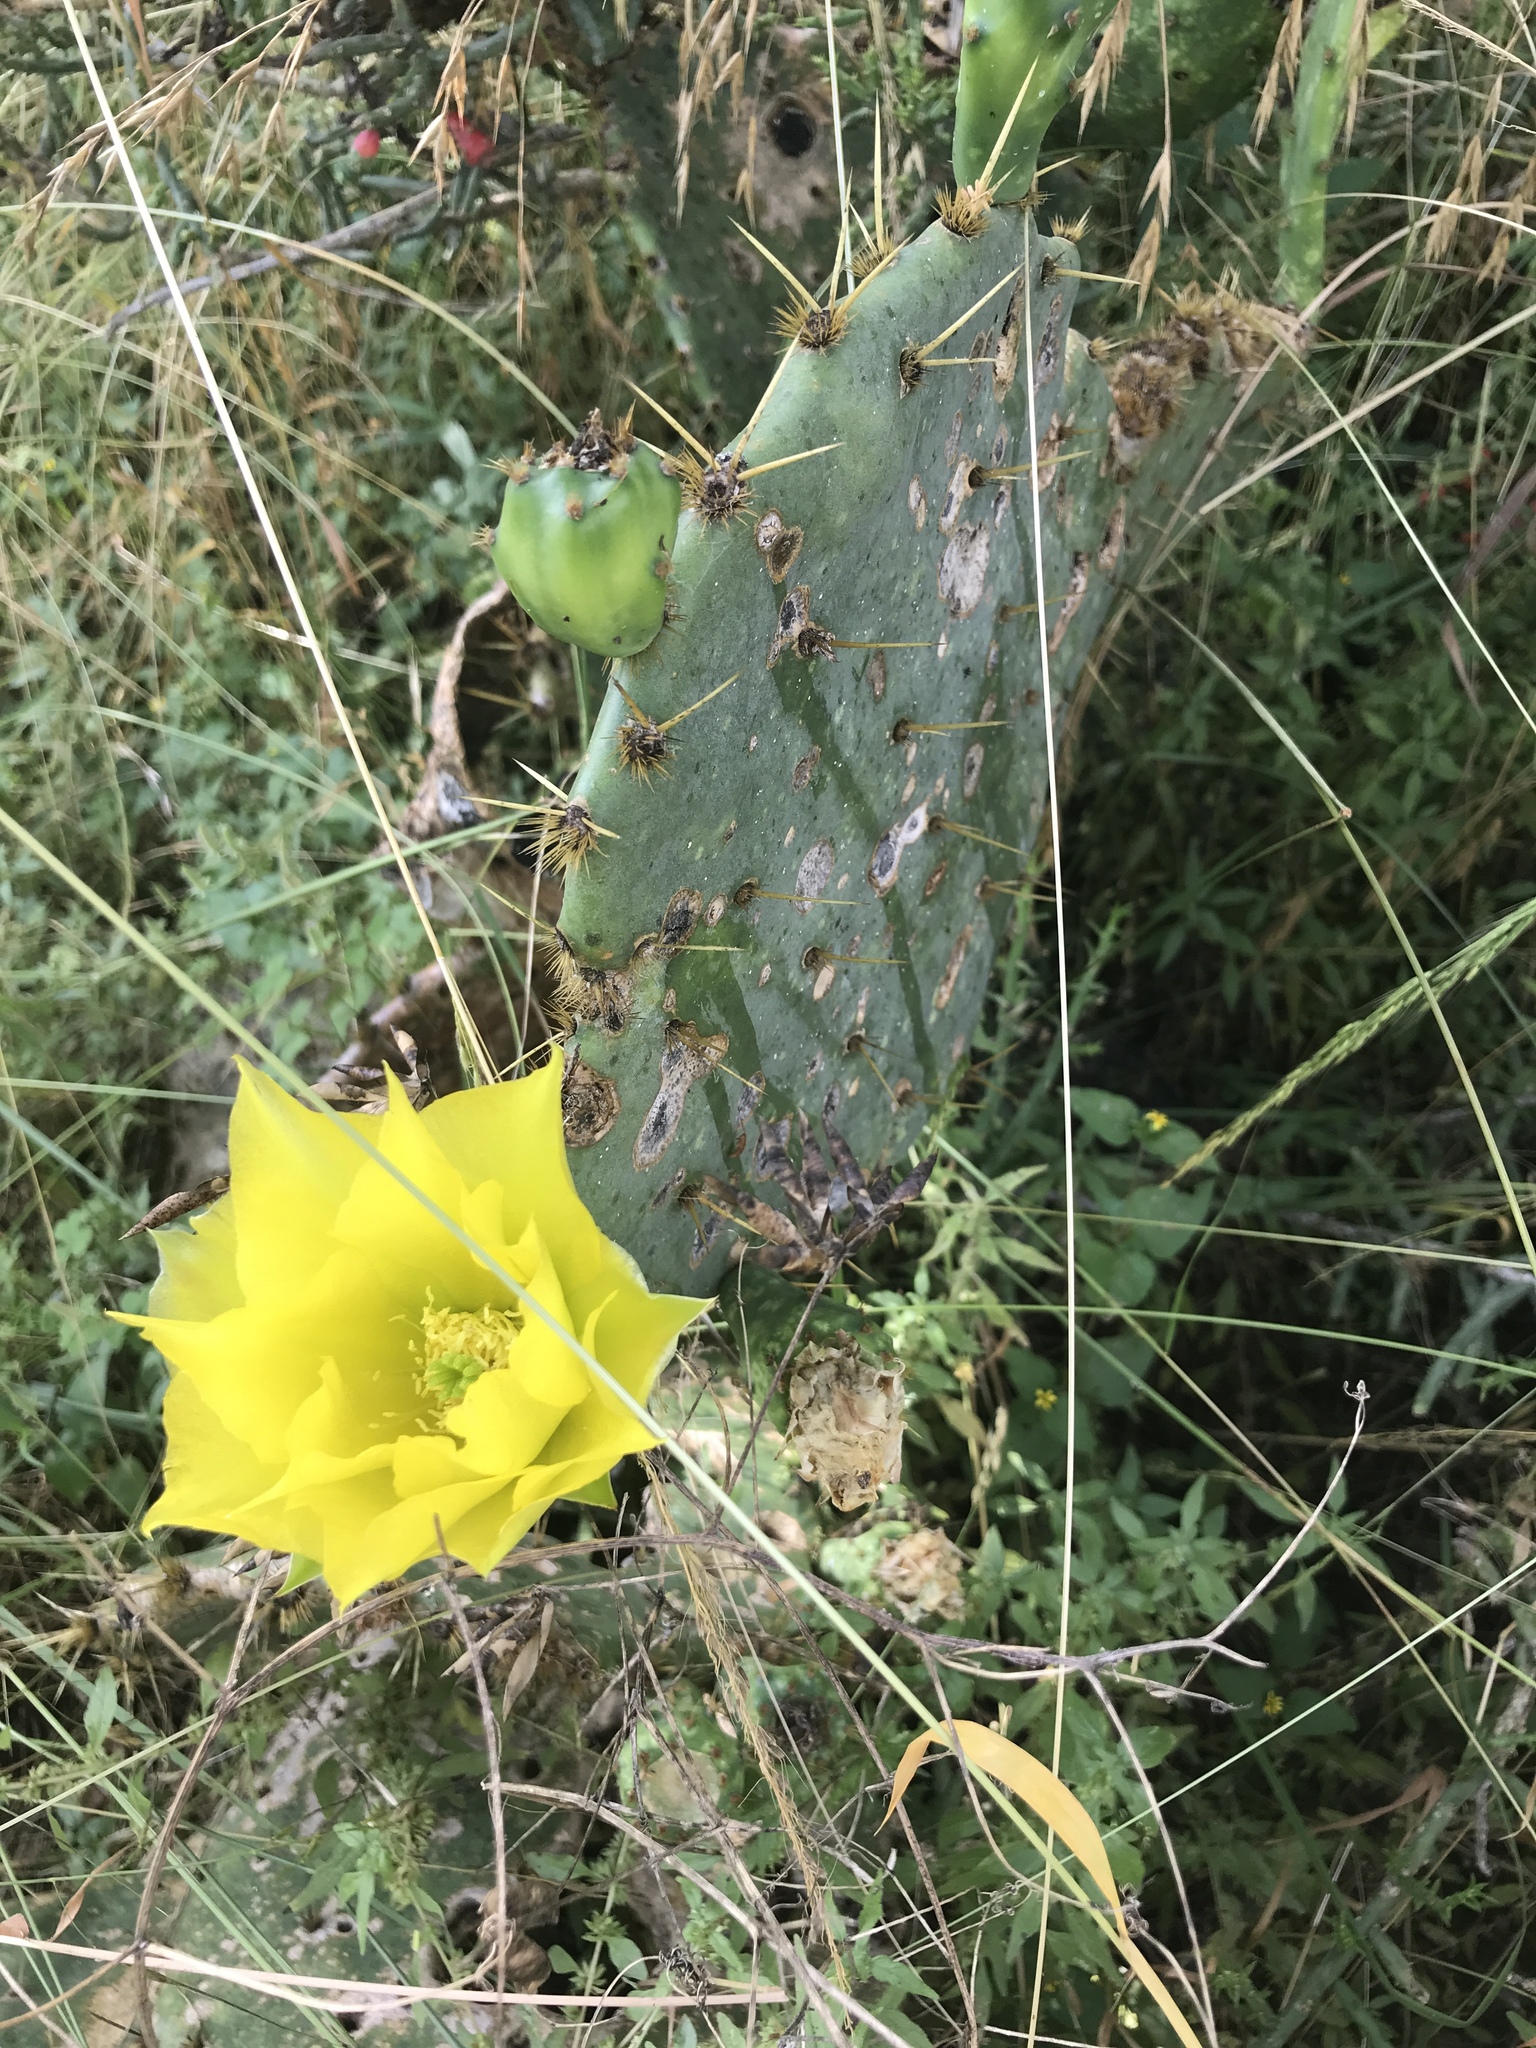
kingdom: Plantae
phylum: Tracheophyta
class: Magnoliopsida
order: Caryophyllales
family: Cactaceae
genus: Opuntia
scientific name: Opuntia engelmannii
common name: Cactus-apple
